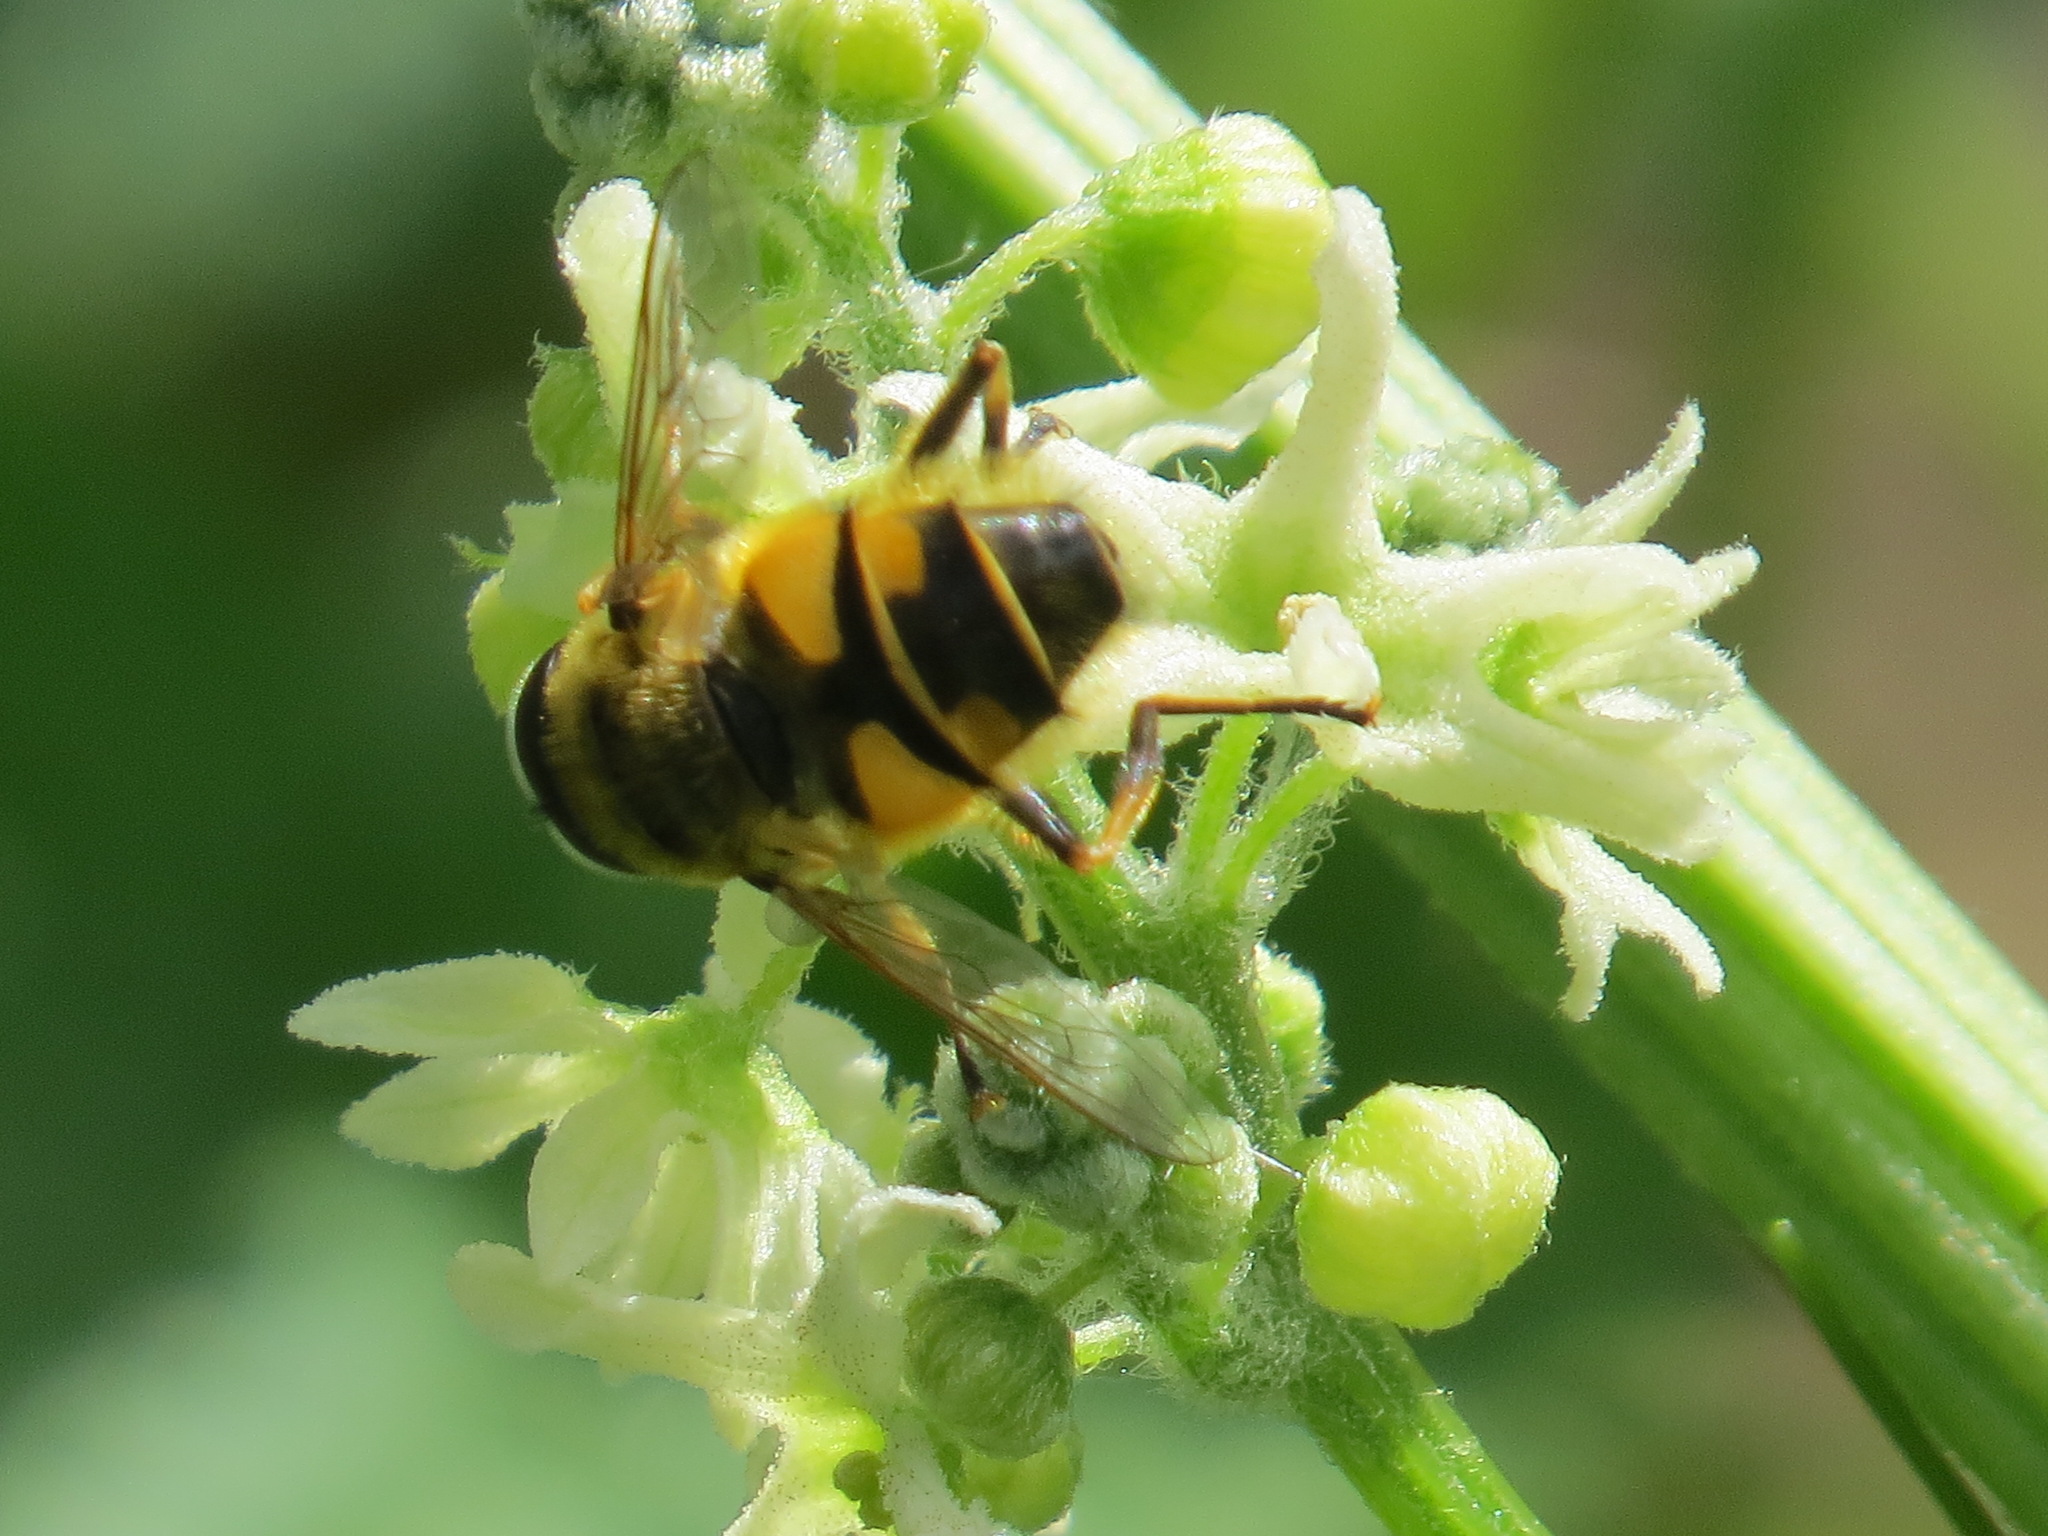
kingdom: Animalia
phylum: Arthropoda
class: Insecta
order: Diptera
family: Syrphidae
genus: Myathropa
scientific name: Myathropa florea
